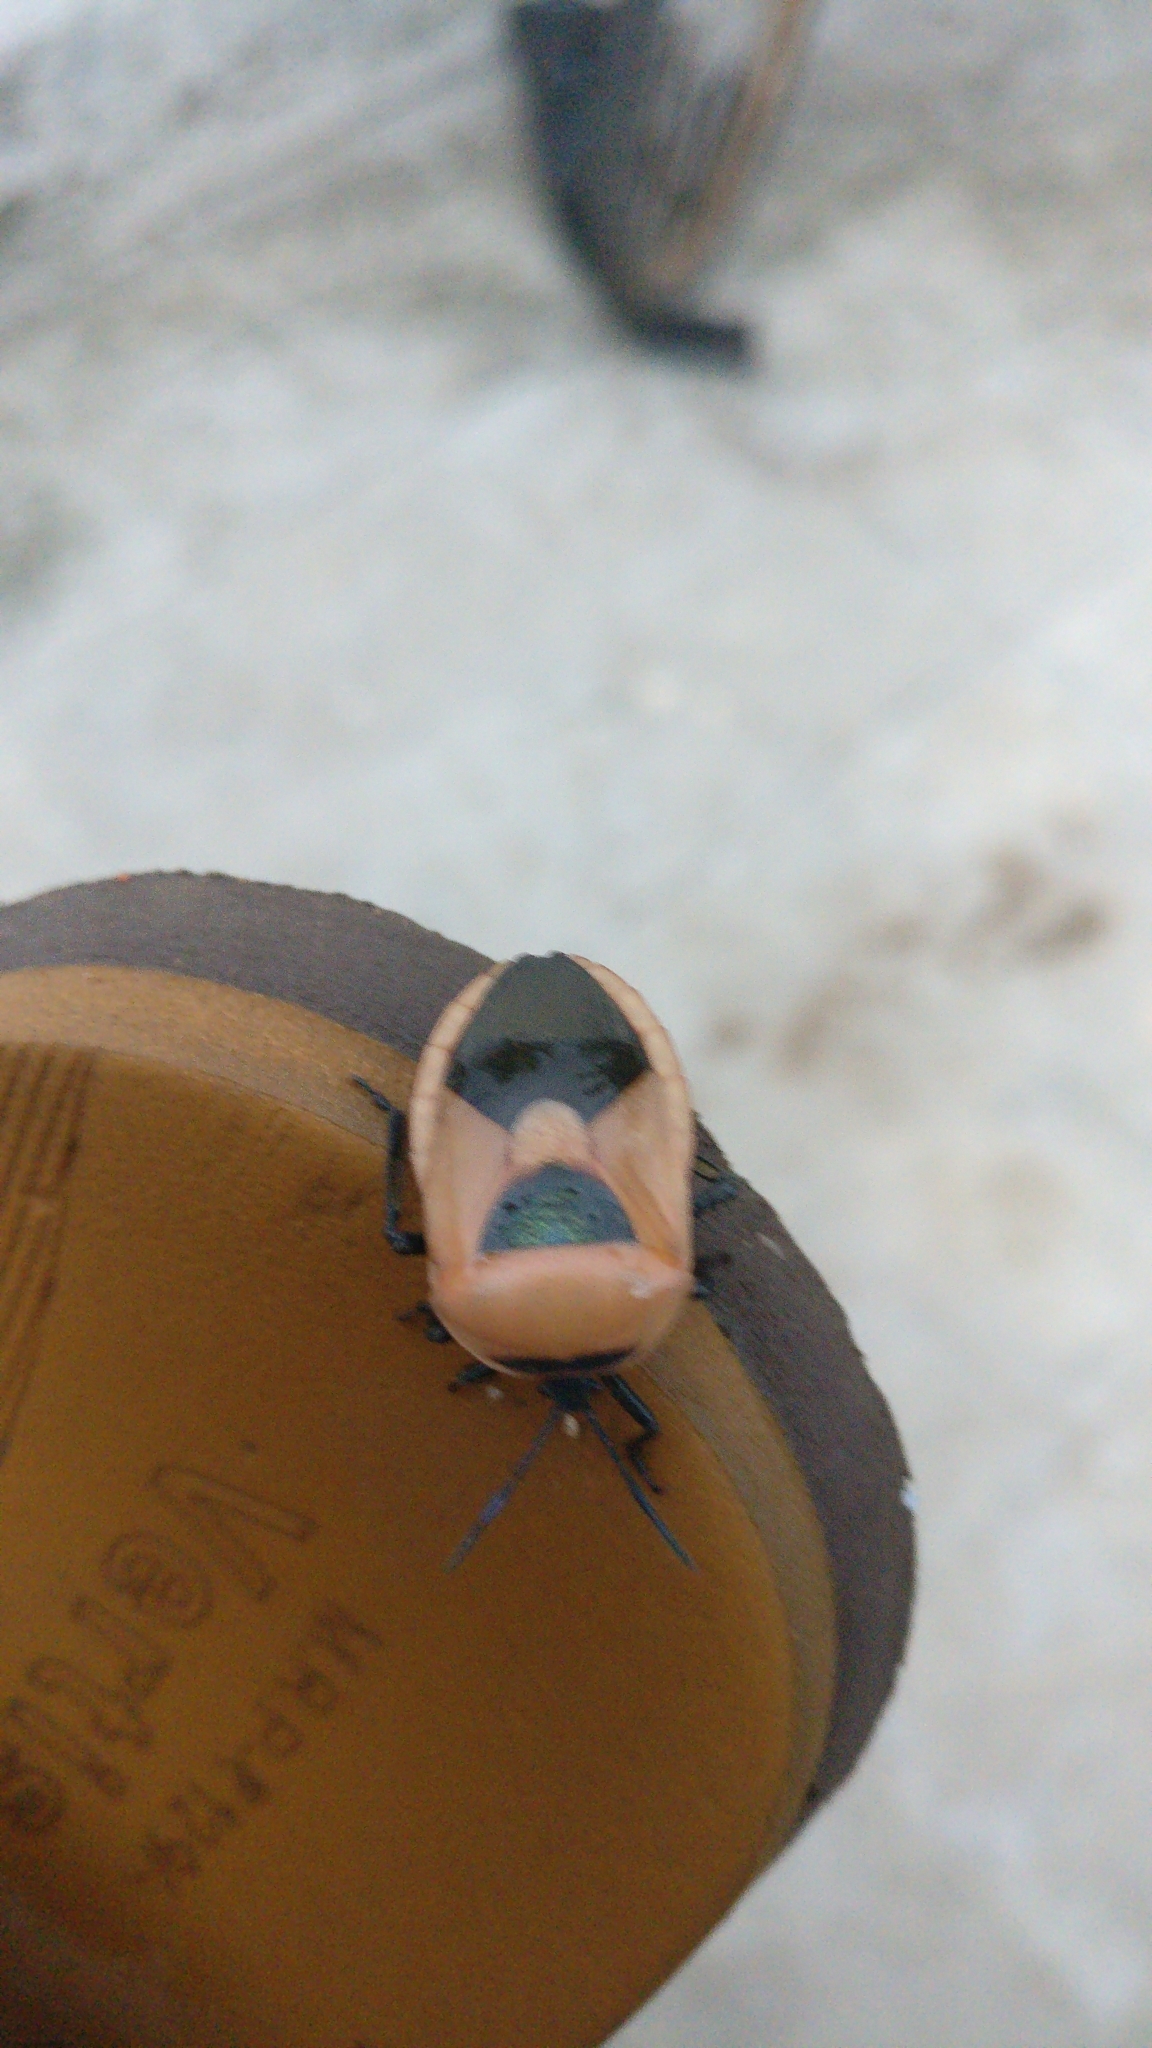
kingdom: Animalia
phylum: Arthropoda
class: Insecta
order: Hemiptera
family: Dinidoridae
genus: Coridius
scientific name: Coridius ianus
